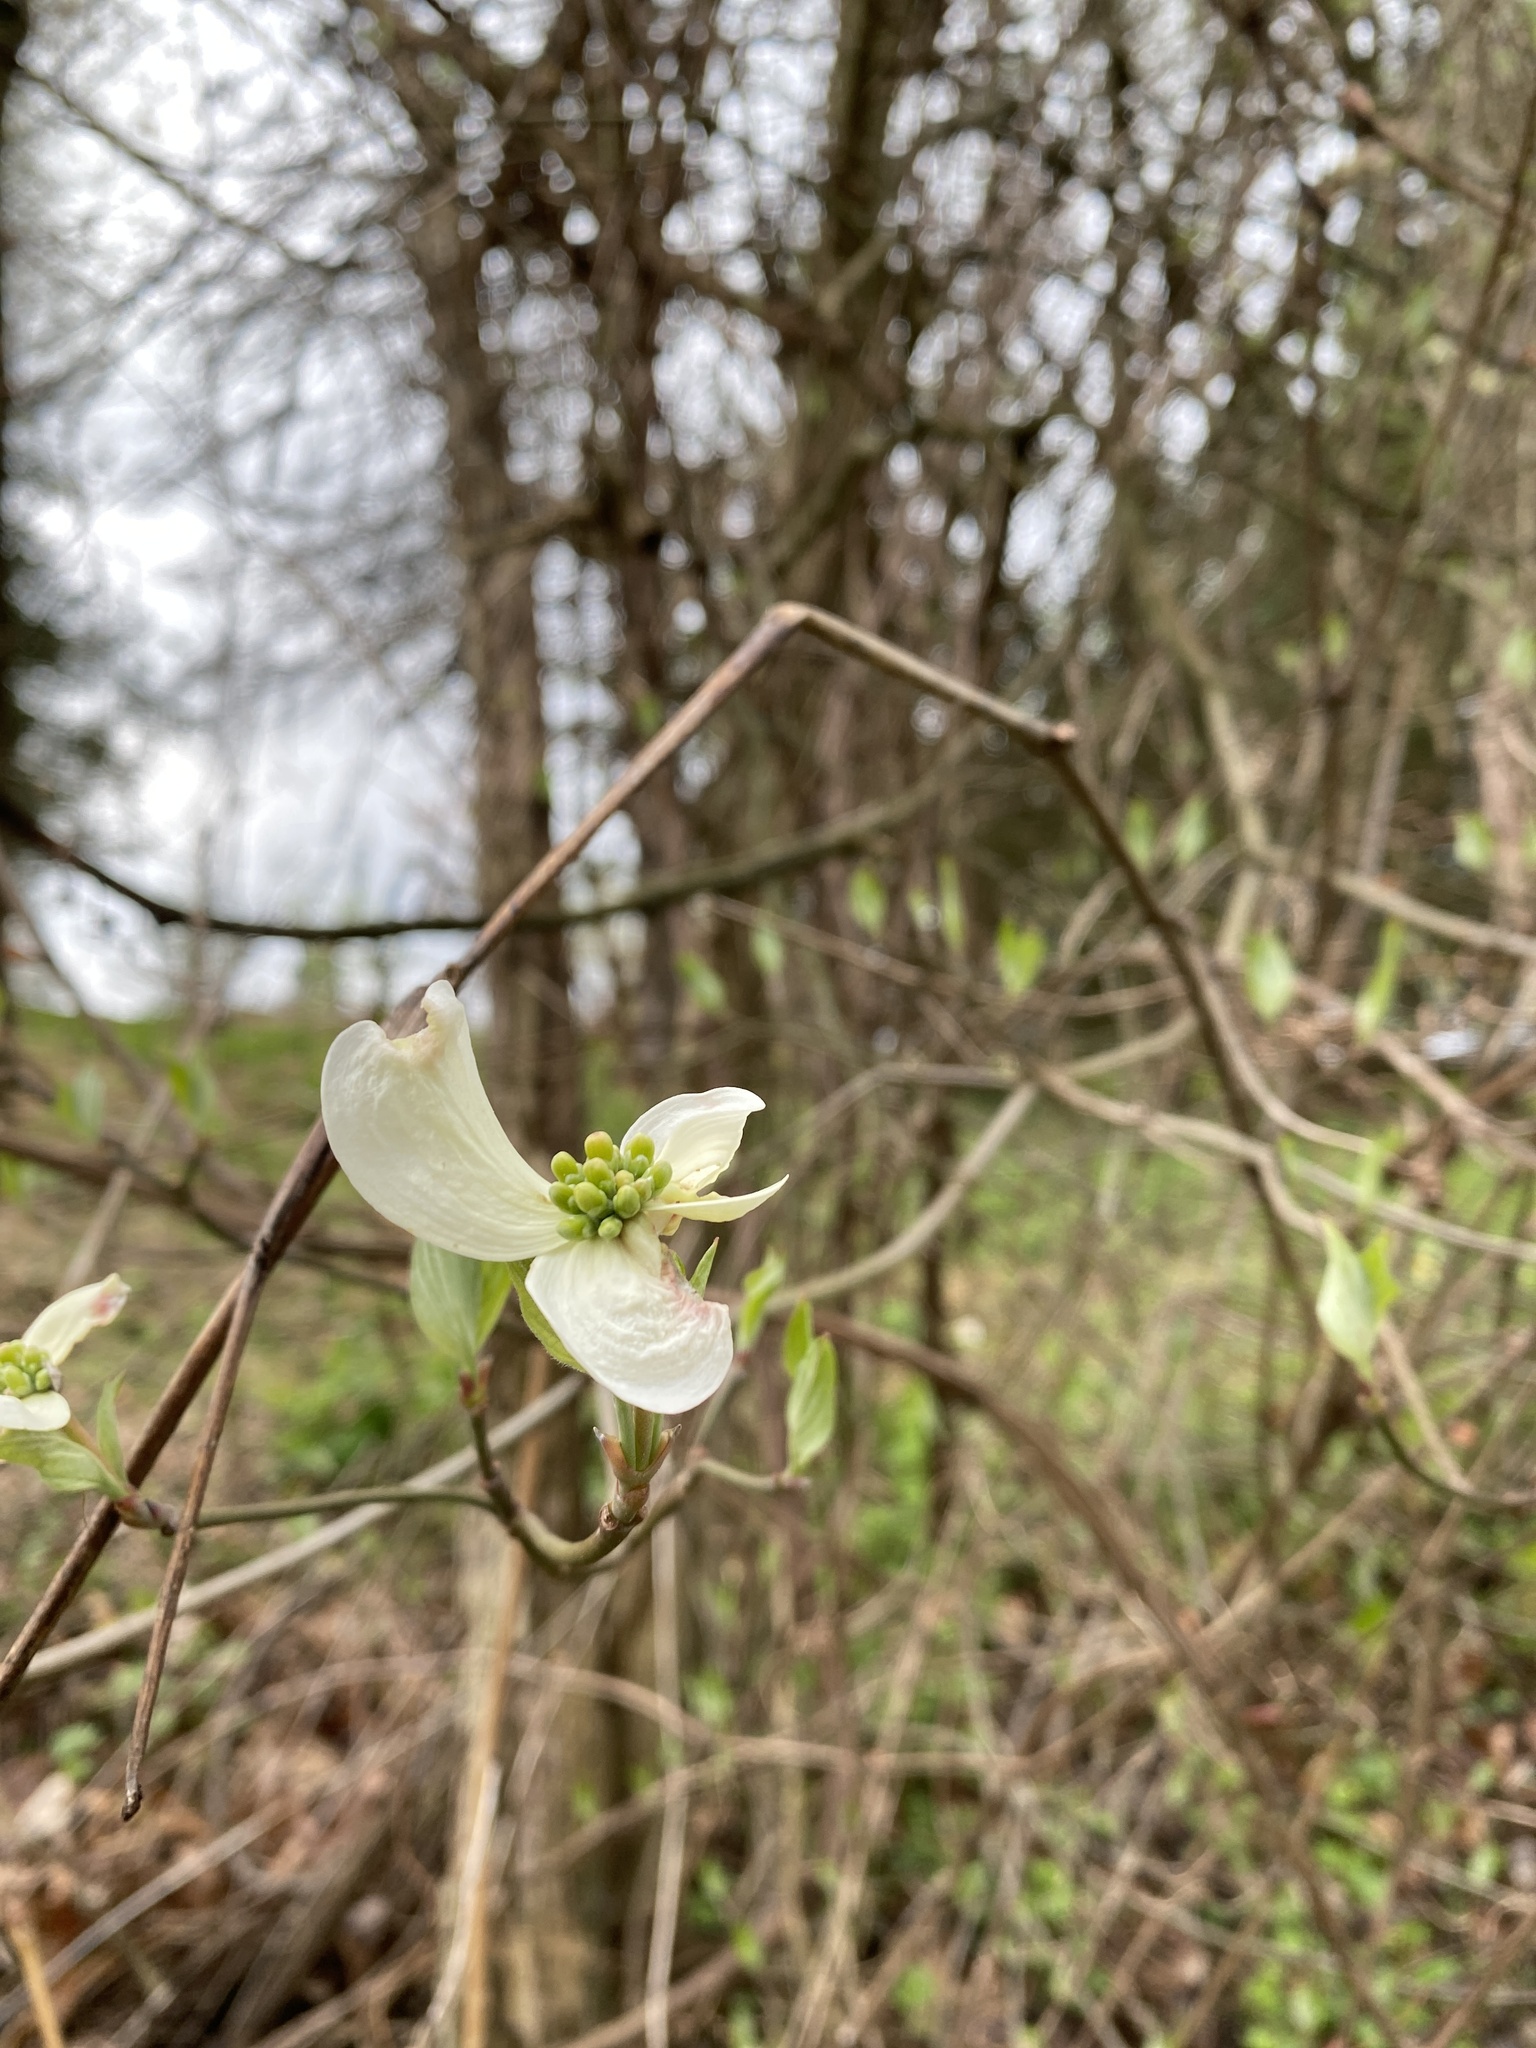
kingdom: Plantae
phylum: Tracheophyta
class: Magnoliopsida
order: Cornales
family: Cornaceae
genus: Cornus
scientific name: Cornus florida
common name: Flowering dogwood
